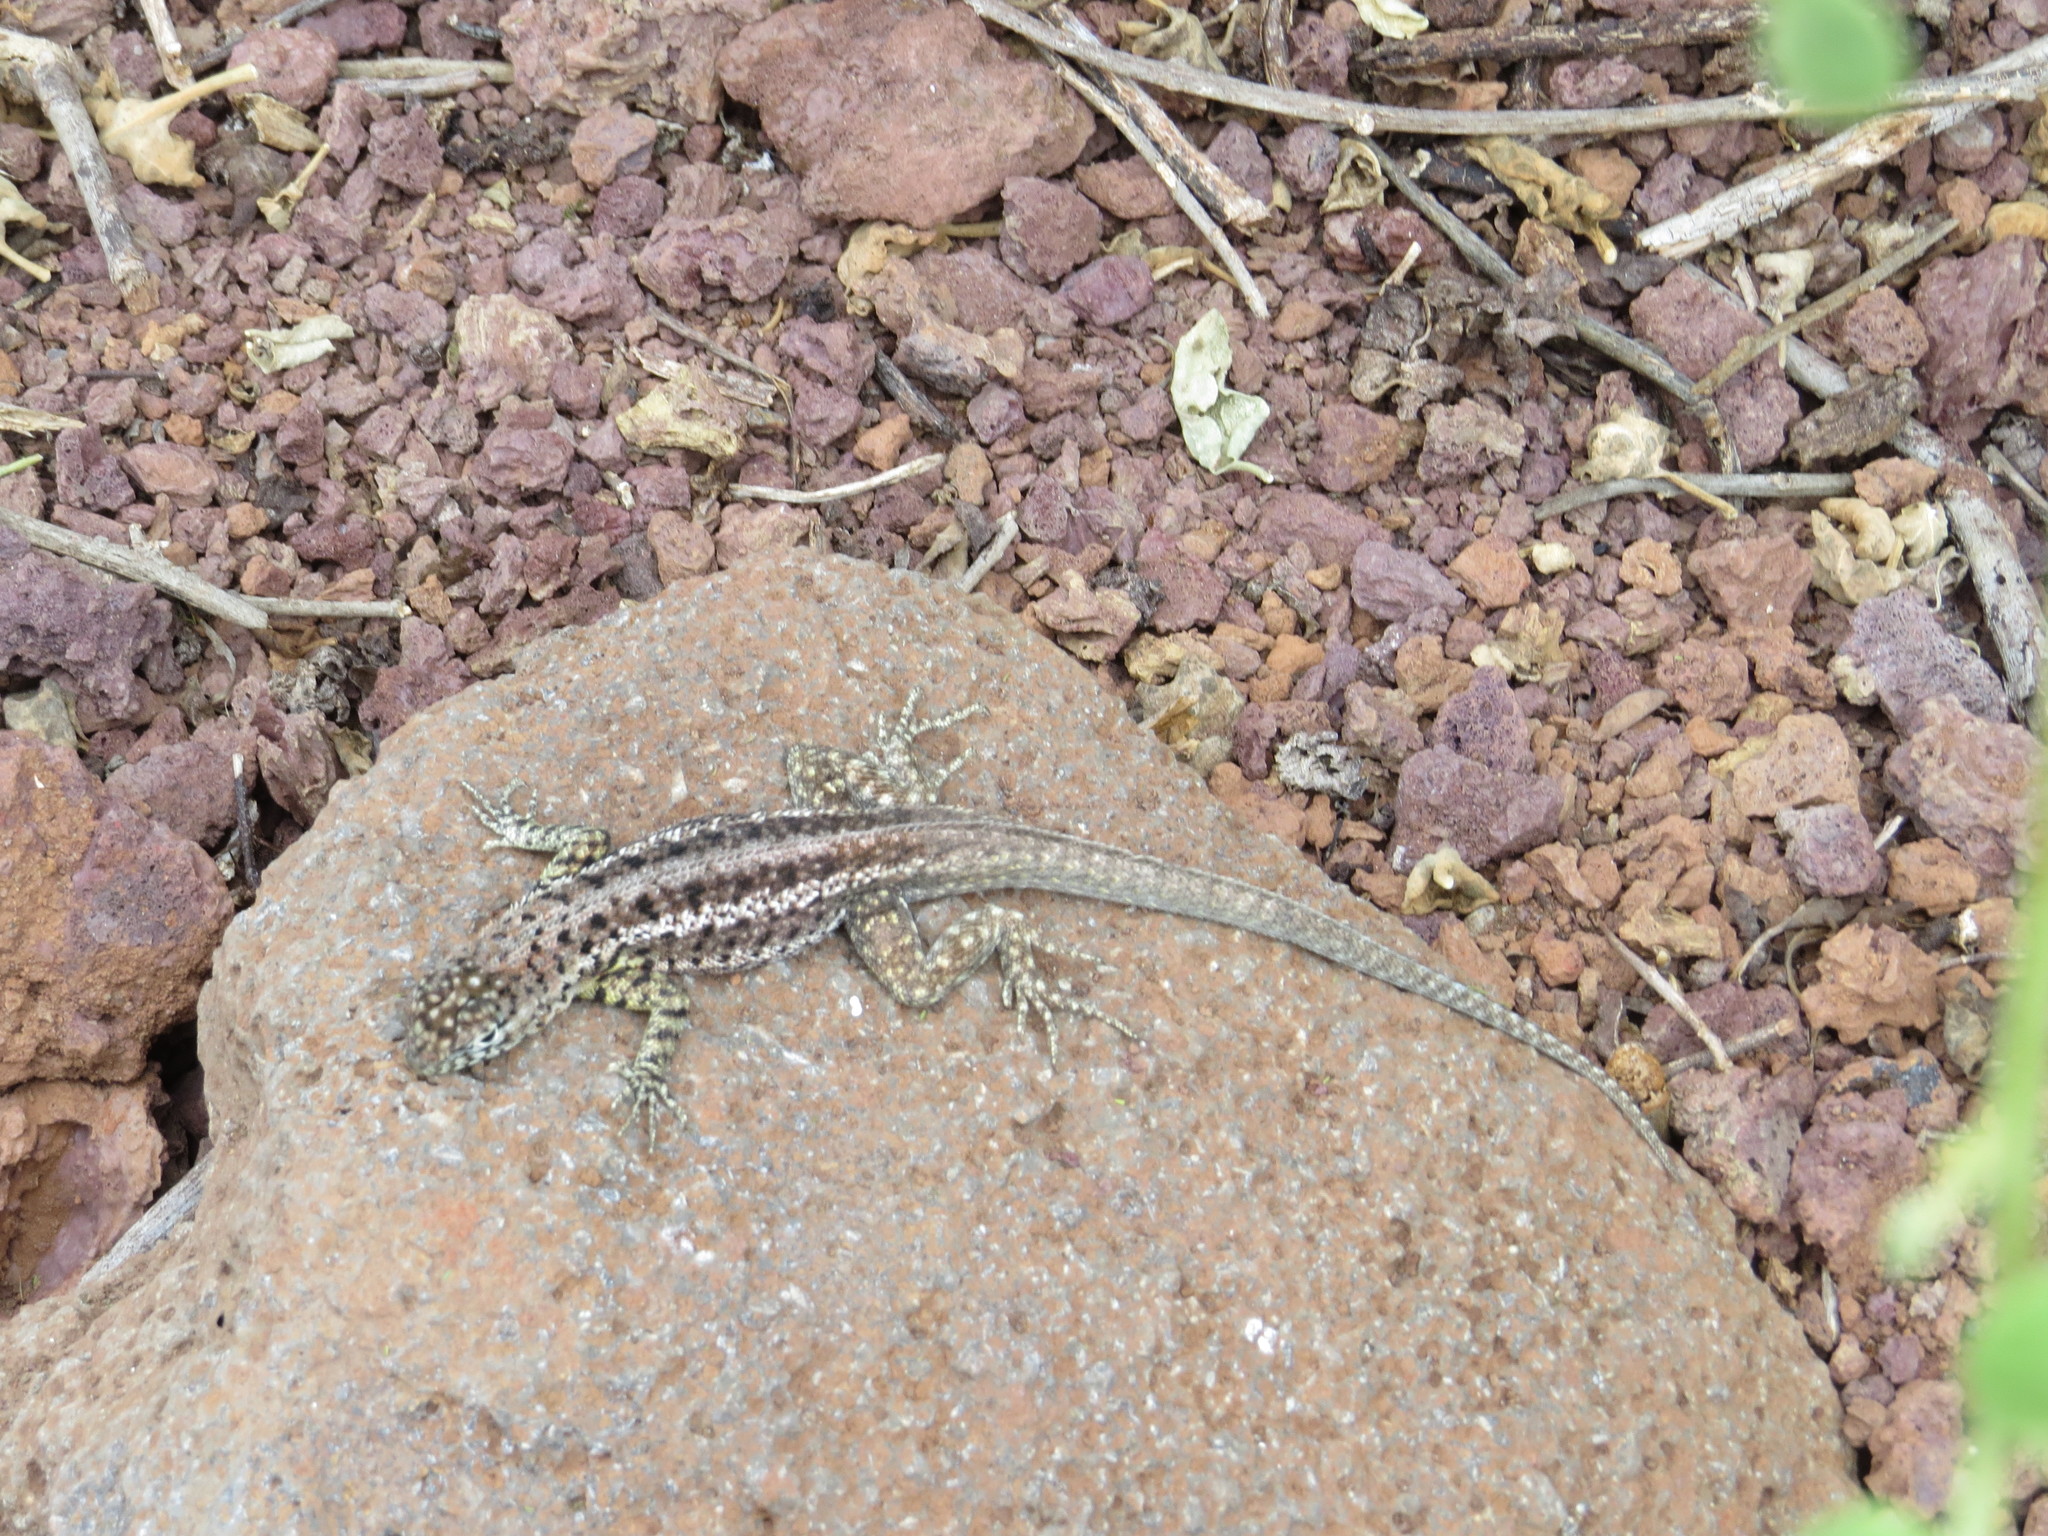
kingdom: Animalia
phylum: Chordata
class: Squamata
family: Tropiduridae
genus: Microlophus
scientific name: Microlophus indefatigabilis
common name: Galapagos lava lizard
